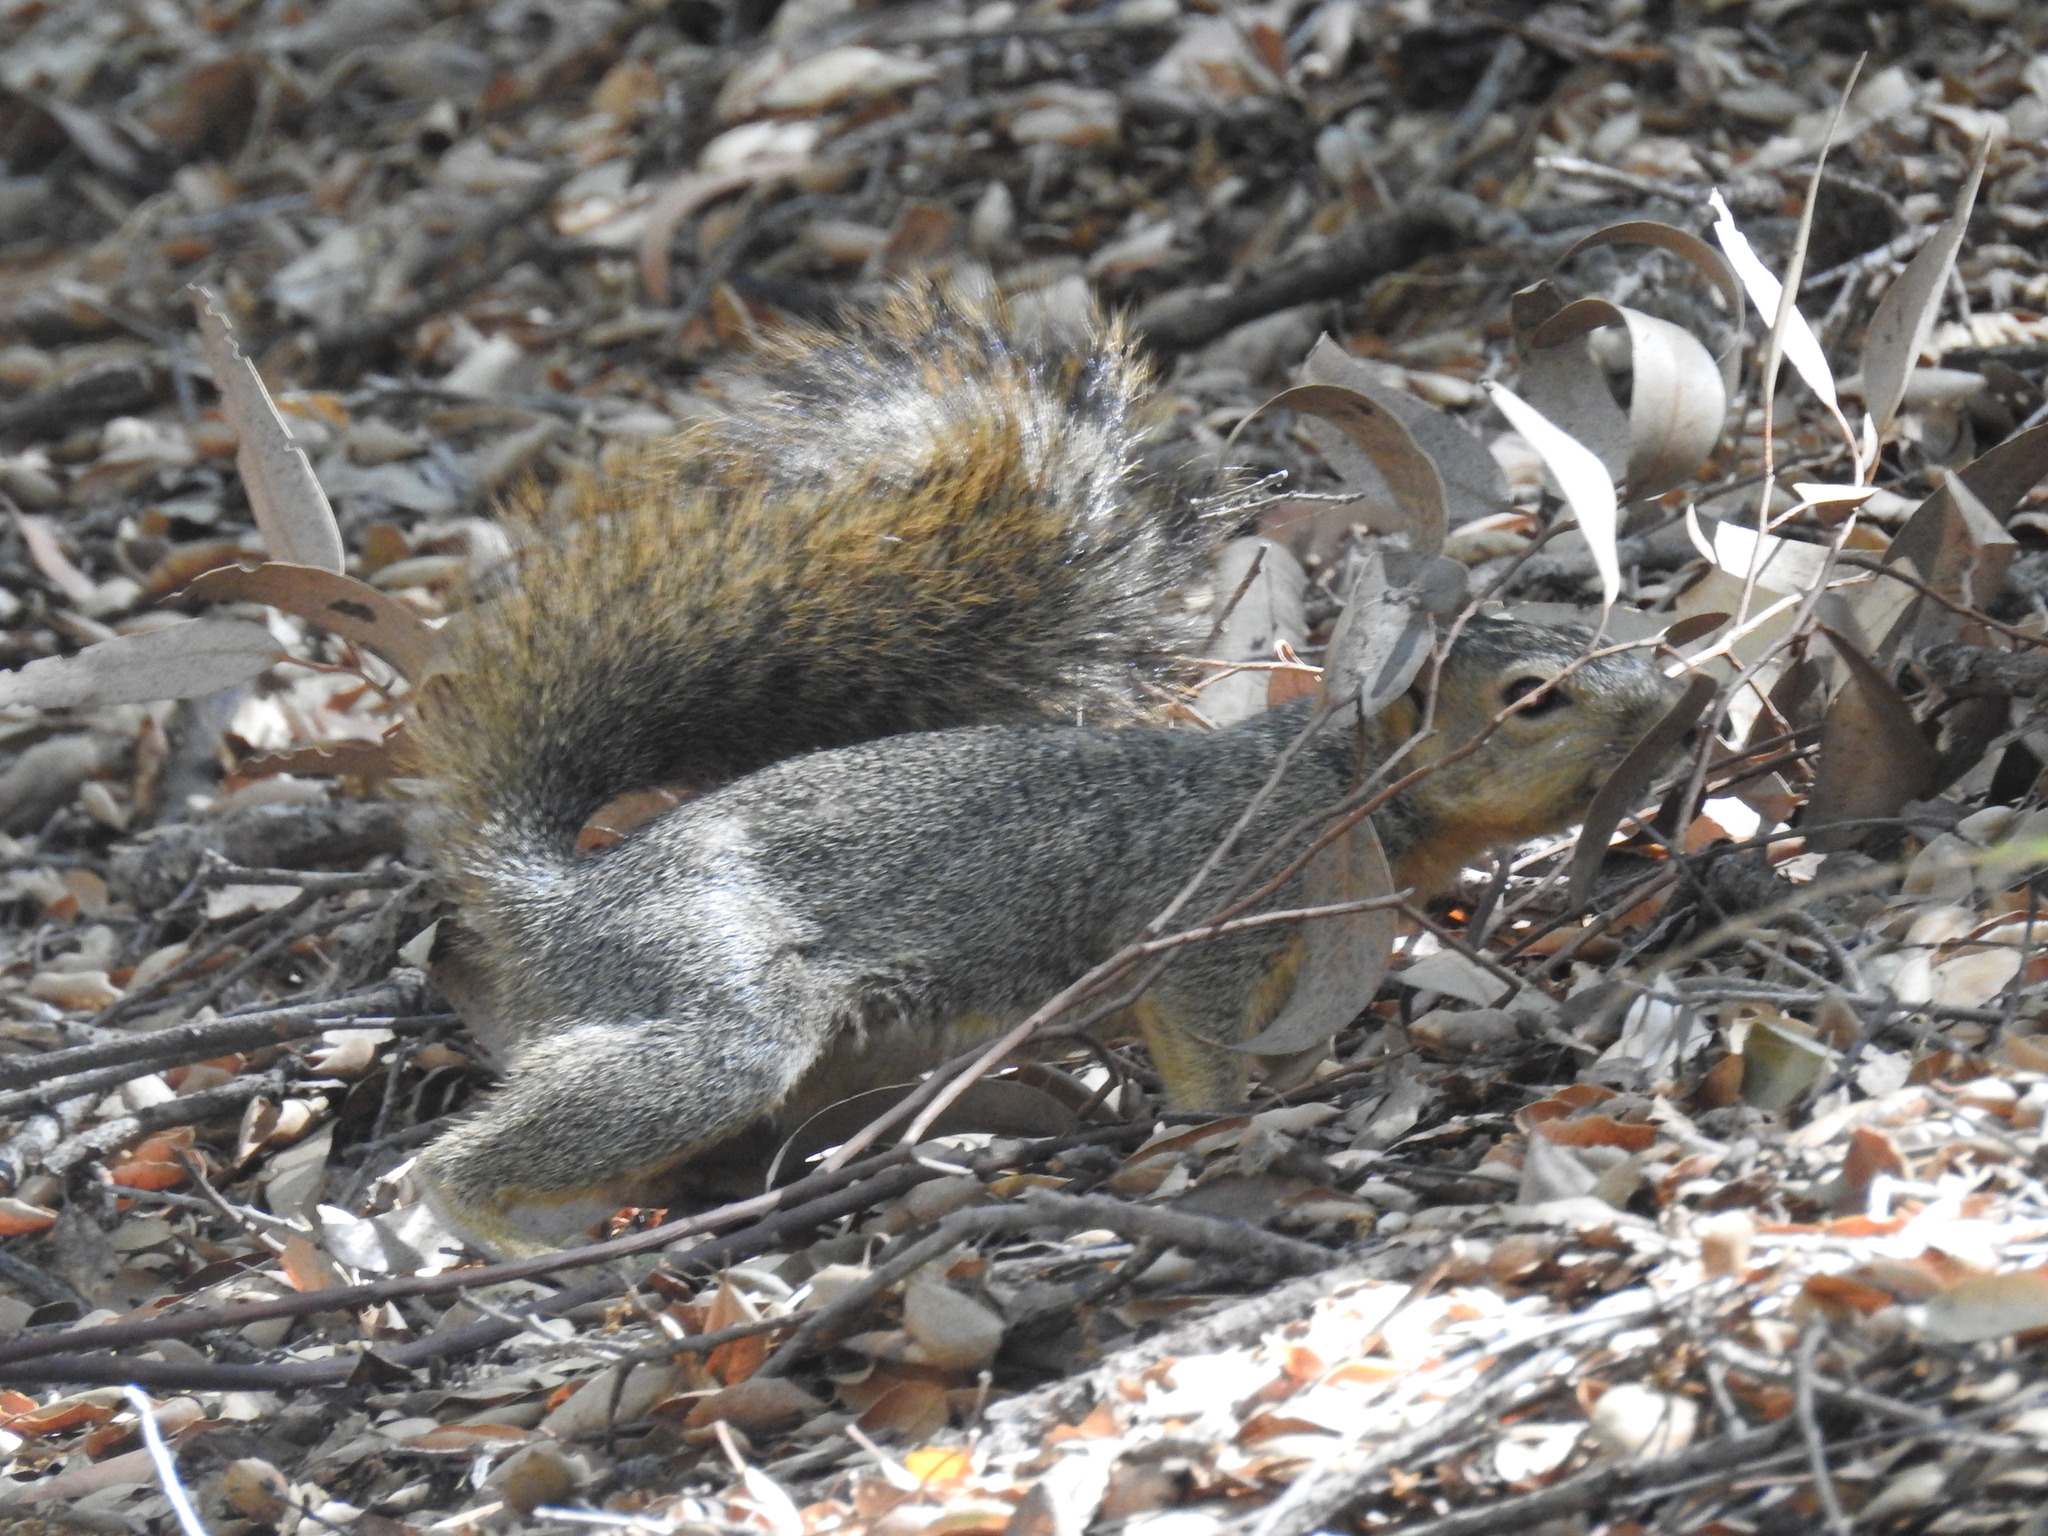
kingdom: Animalia
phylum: Chordata
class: Mammalia
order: Rodentia
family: Sciuridae
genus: Sciurus
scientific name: Sciurus niger
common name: Fox squirrel
